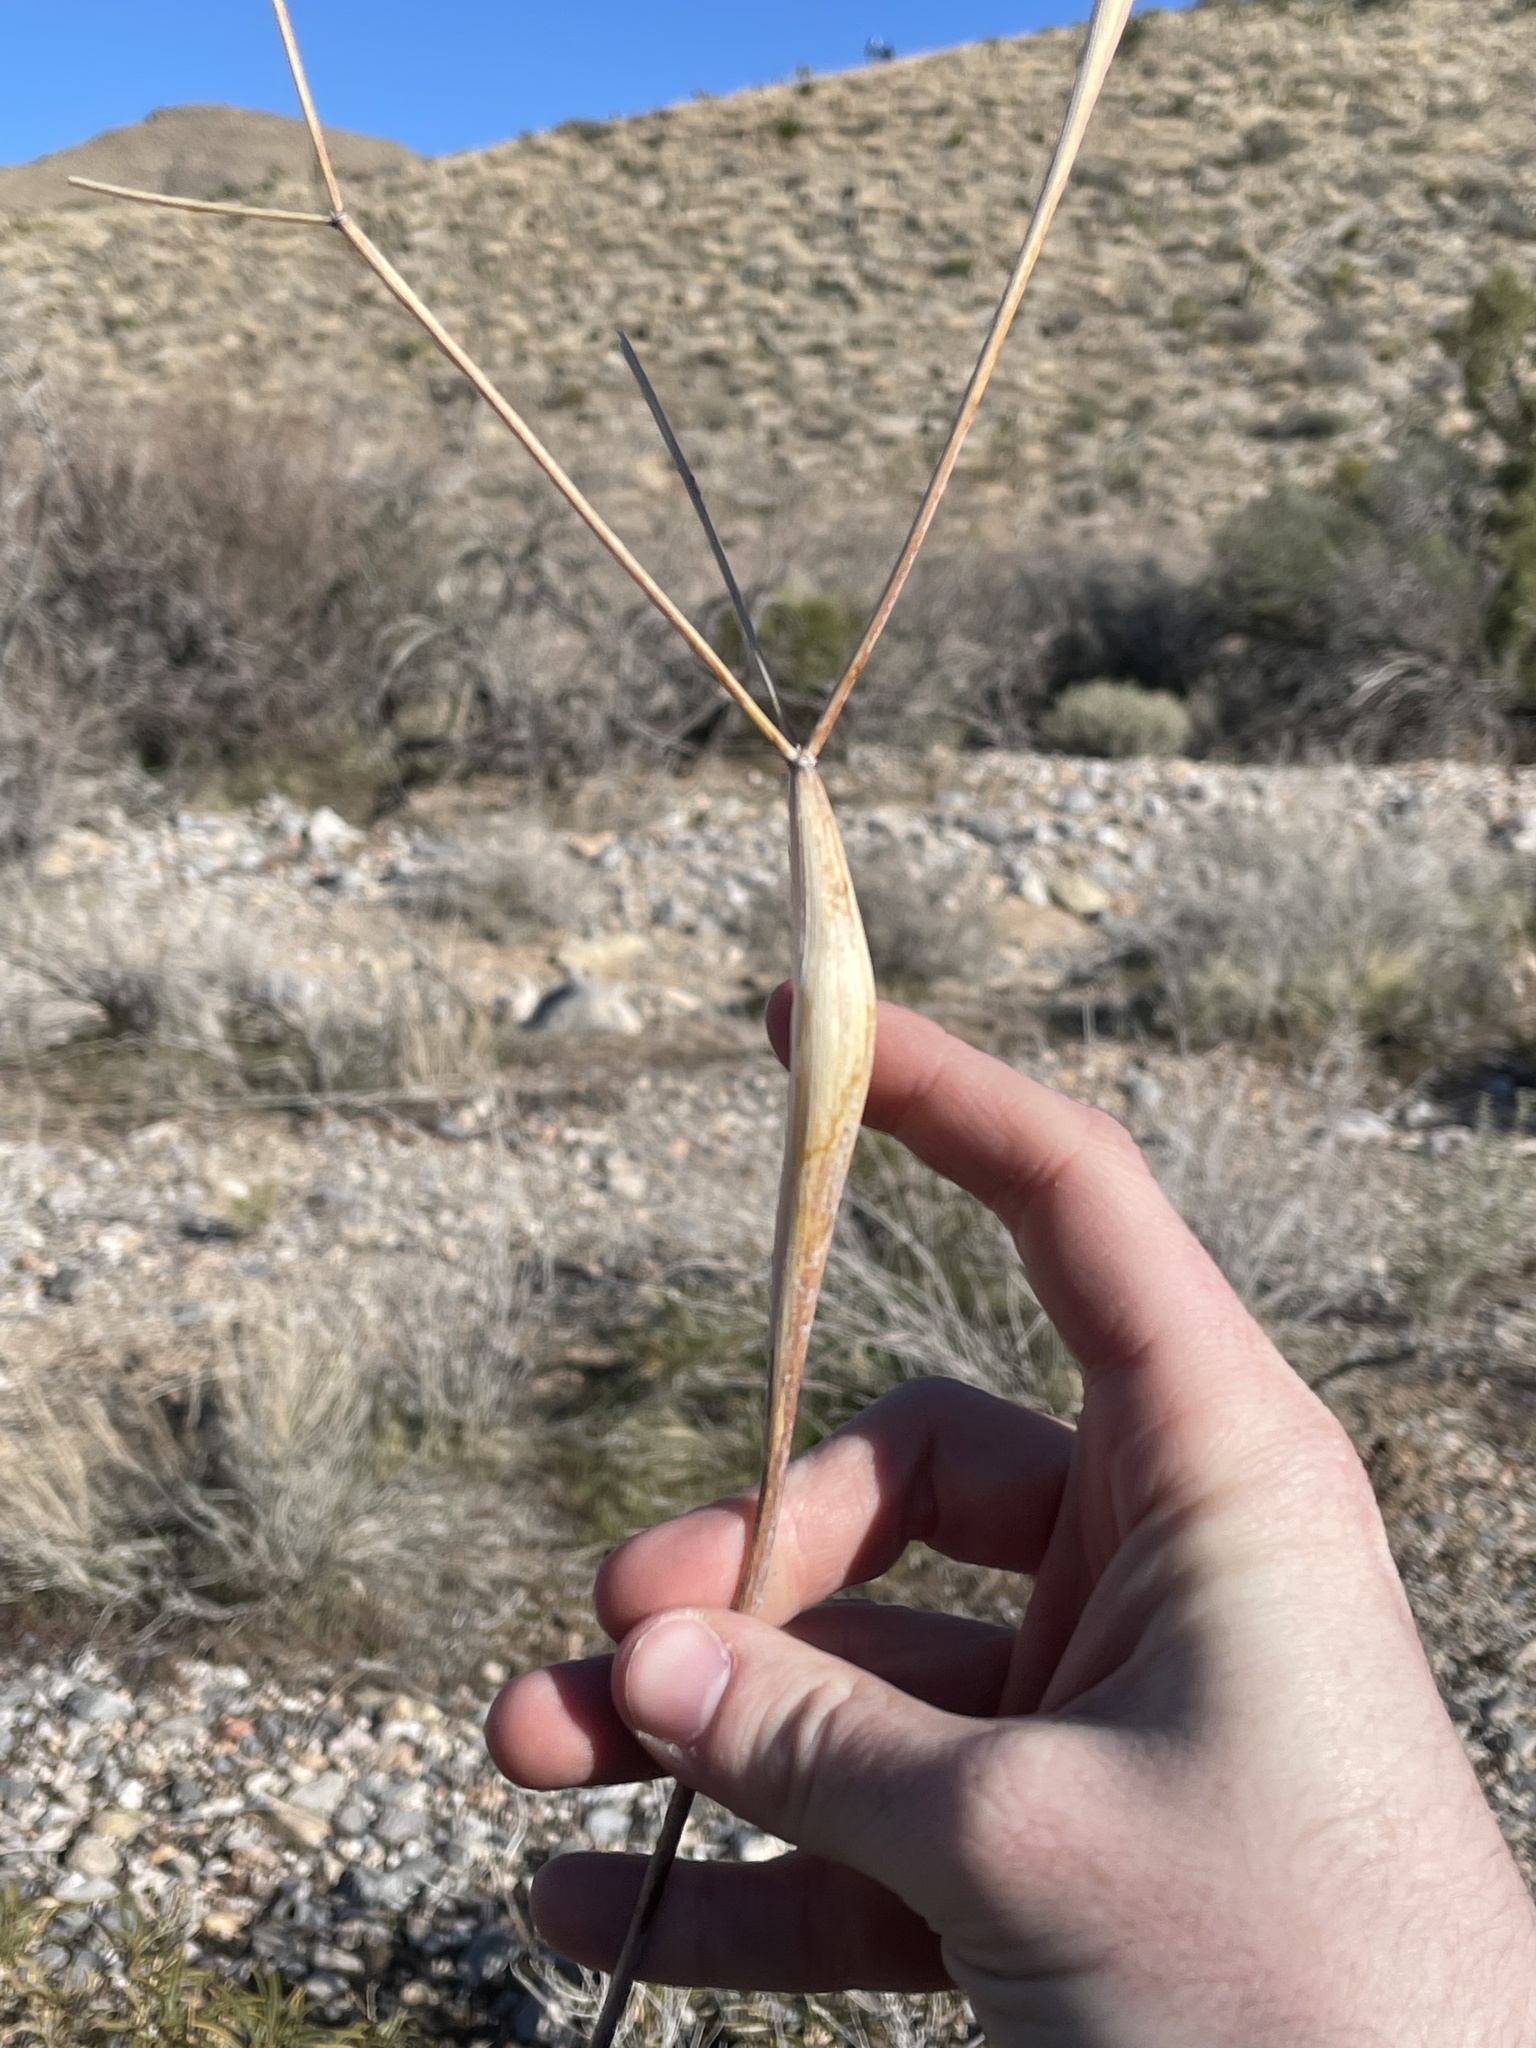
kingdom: Plantae
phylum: Tracheophyta
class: Magnoliopsida
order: Caryophyllales
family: Polygonaceae
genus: Eriogonum
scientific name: Eriogonum inflatum
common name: Desert trumpet
